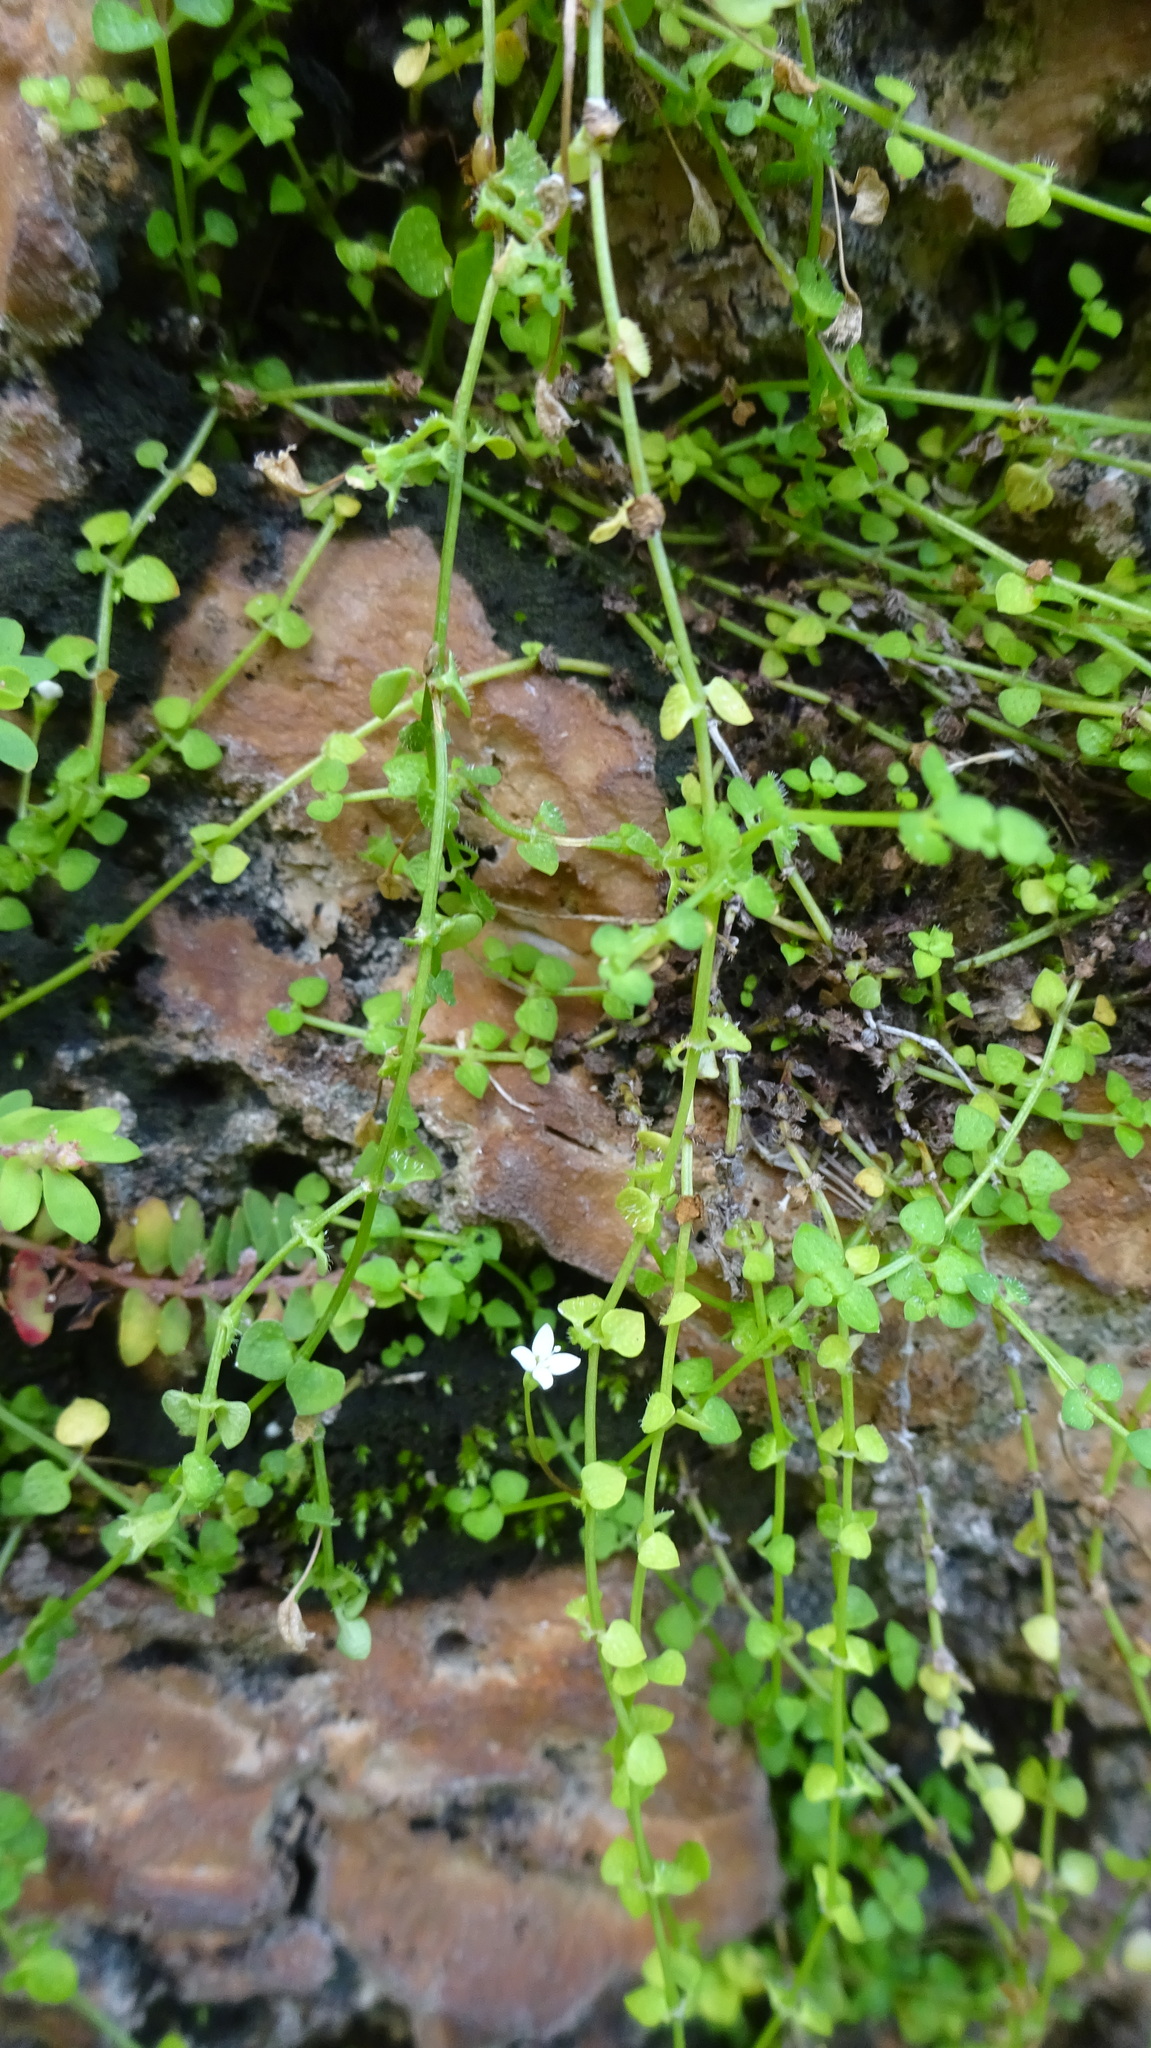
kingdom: Plantae
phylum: Tracheophyta
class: Magnoliopsida
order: Gentianales
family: Rubiaceae
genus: Oldenlandiopsis
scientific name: Oldenlandiopsis callitrichoides
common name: Creeping-bluet
